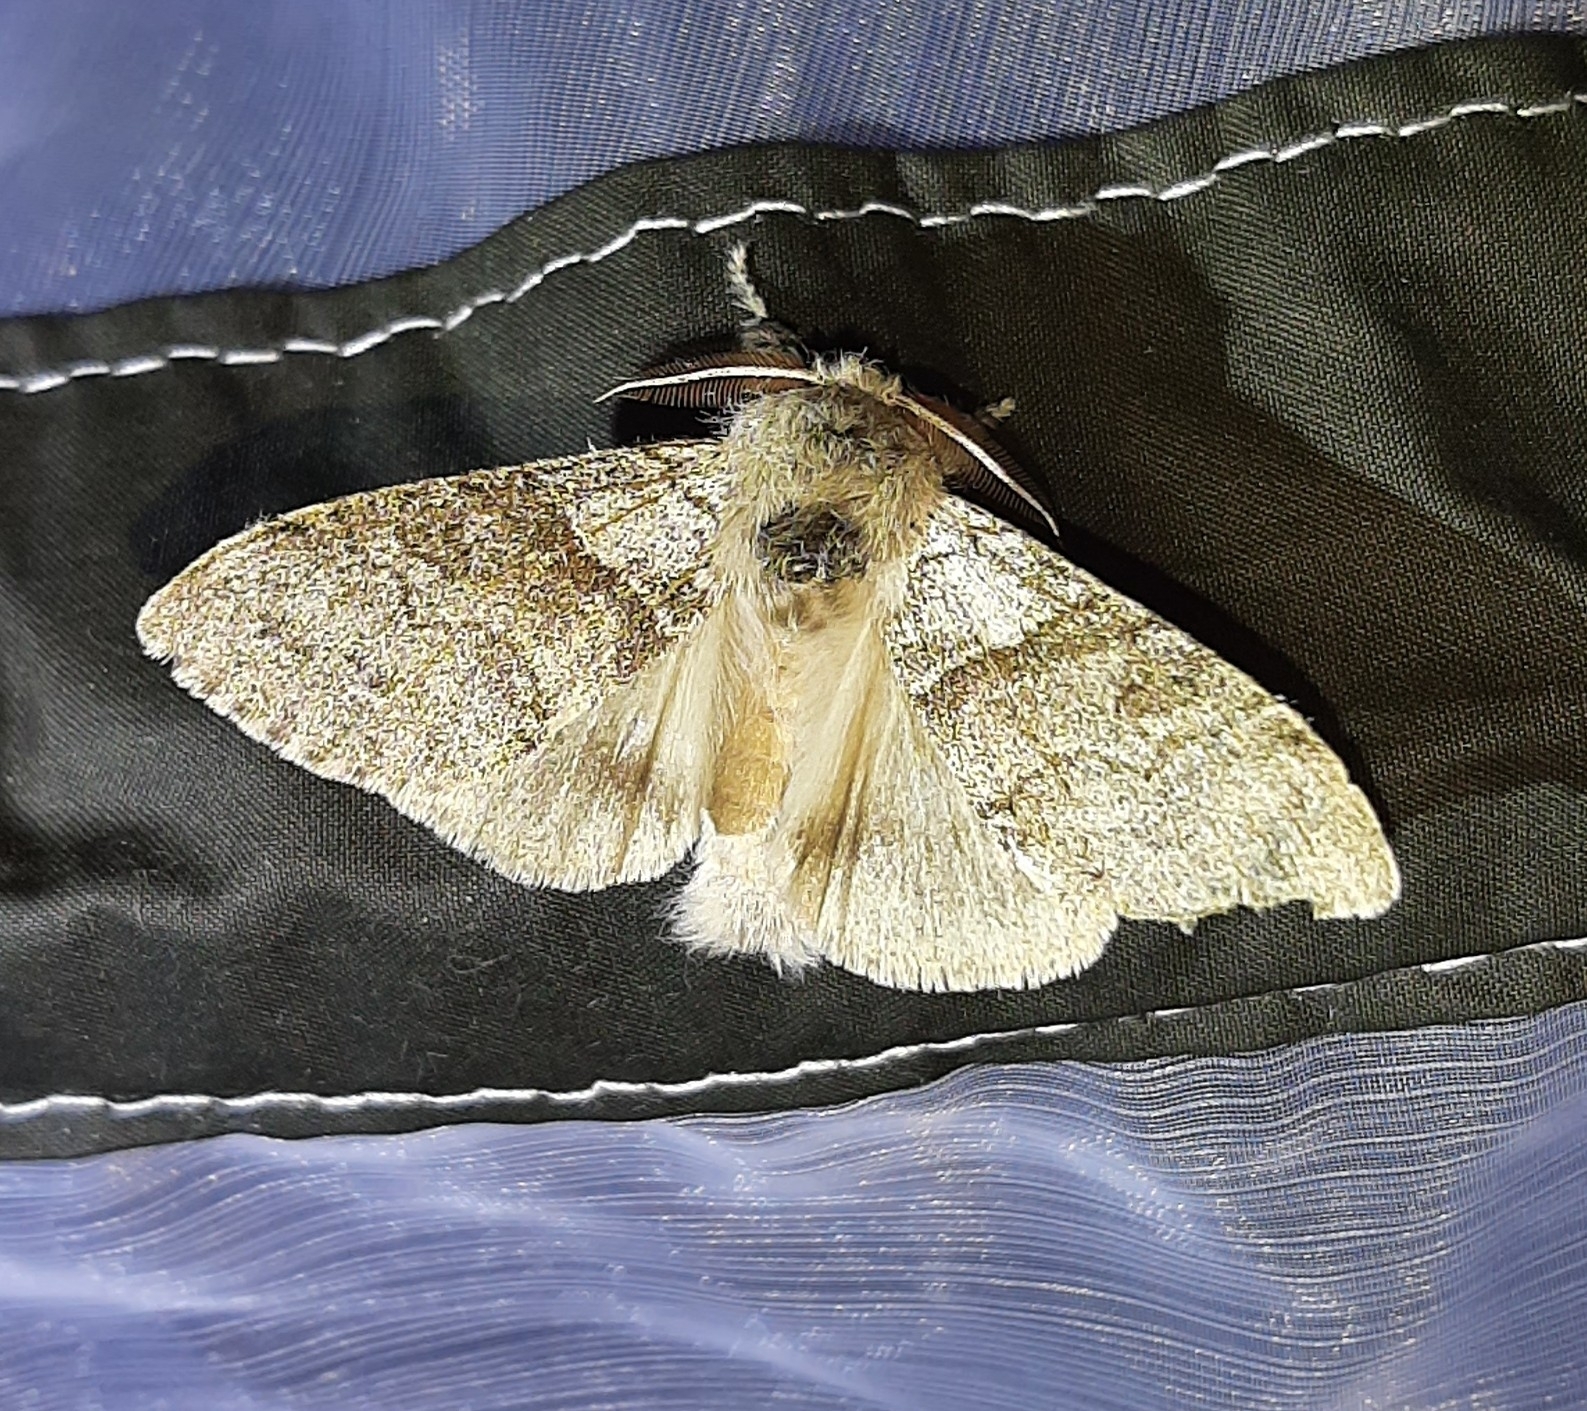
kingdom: Animalia
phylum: Arthropoda
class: Insecta
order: Lepidoptera
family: Erebidae
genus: Calliteara
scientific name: Calliteara pudibunda
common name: Pale tussock
